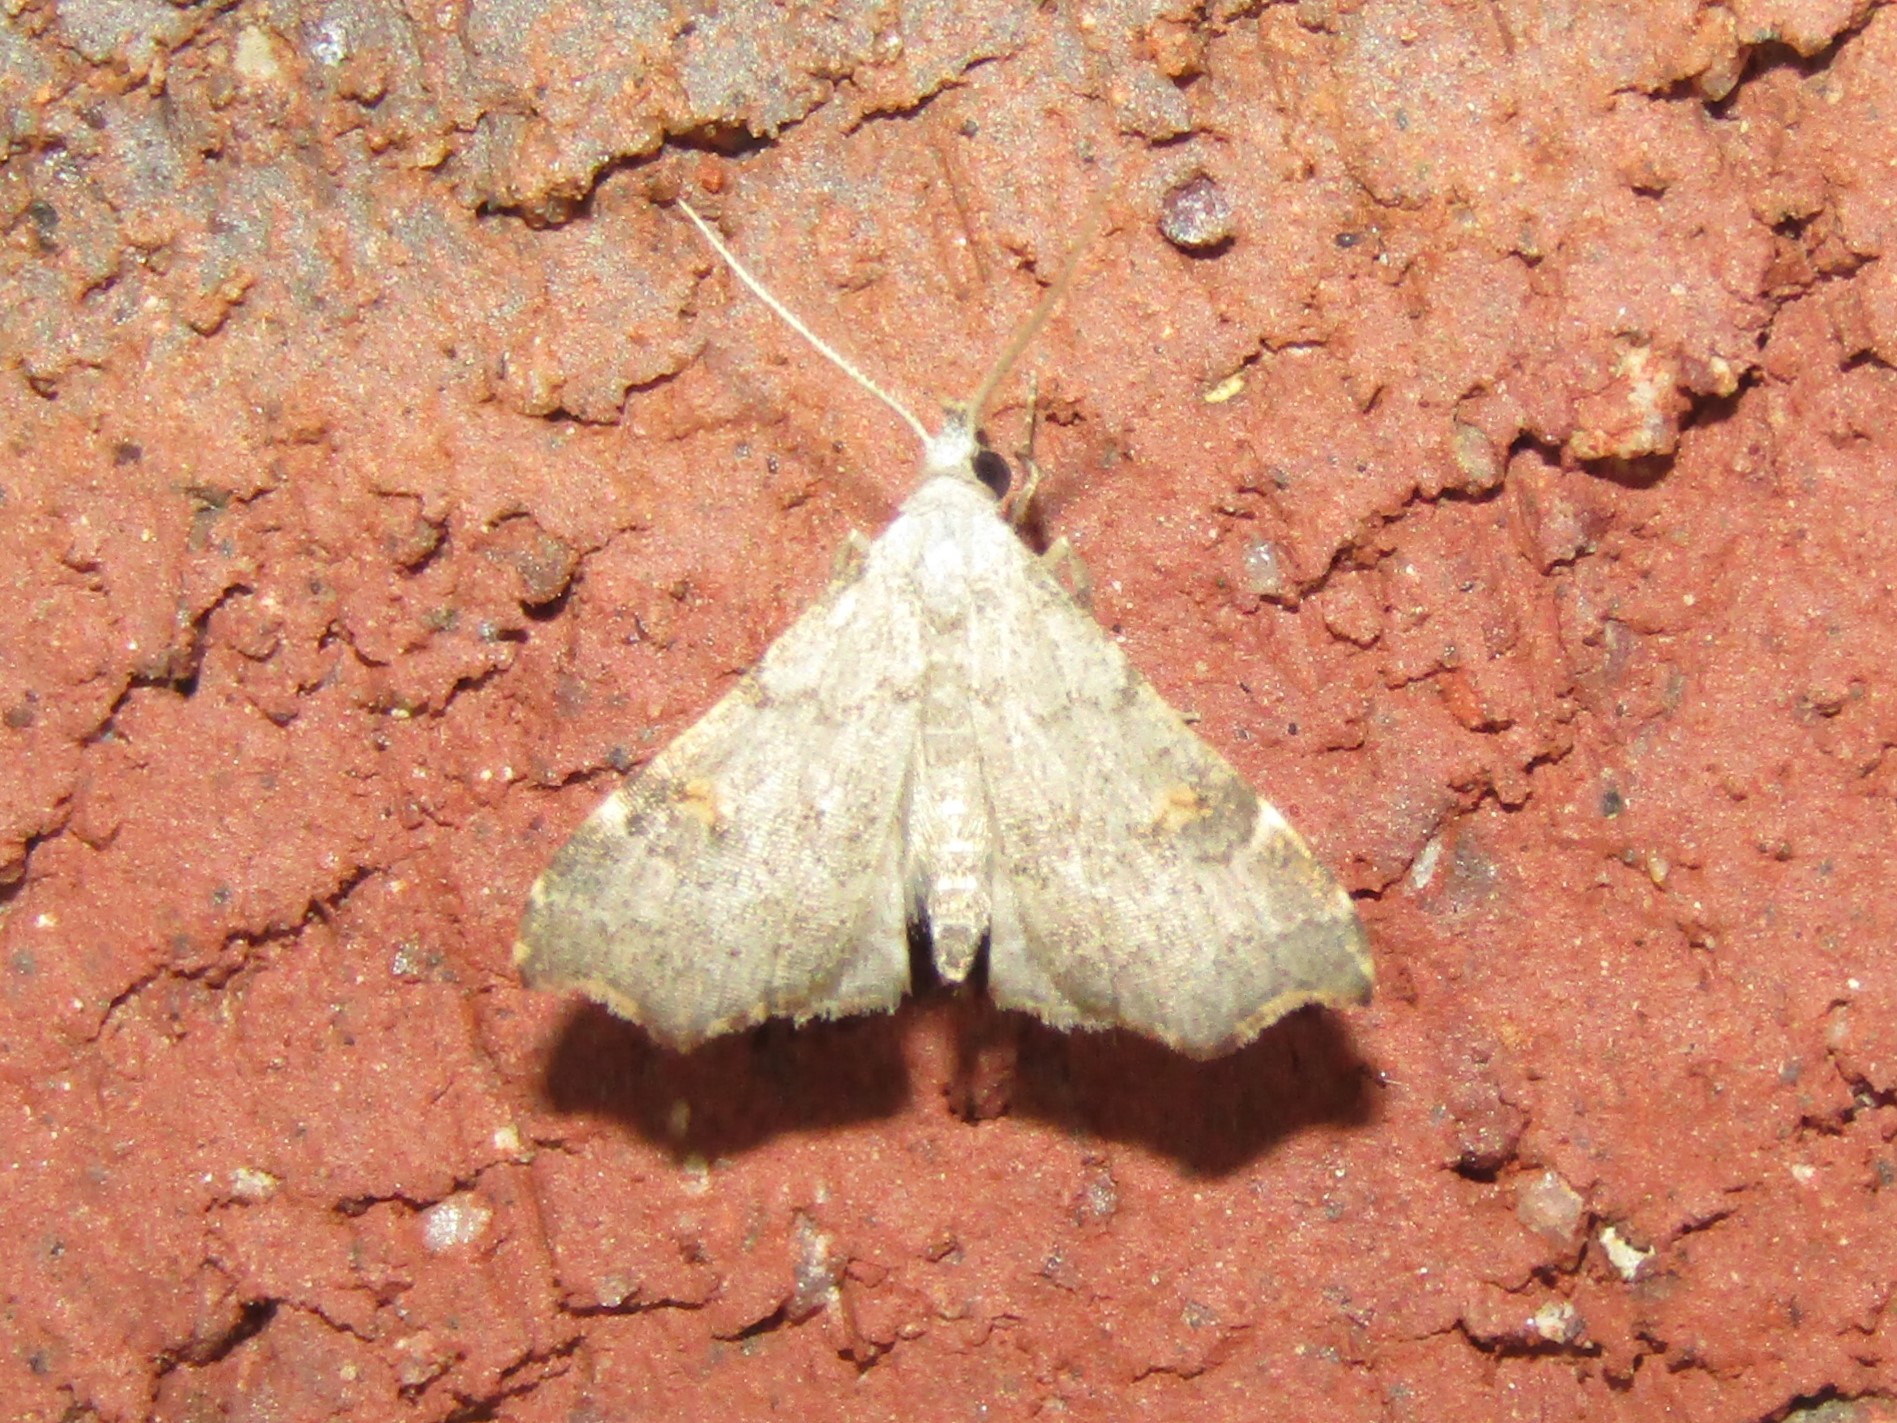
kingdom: Animalia
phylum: Arthropoda
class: Insecta
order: Lepidoptera
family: Erebidae
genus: Redectis
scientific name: Redectis pygmaea
